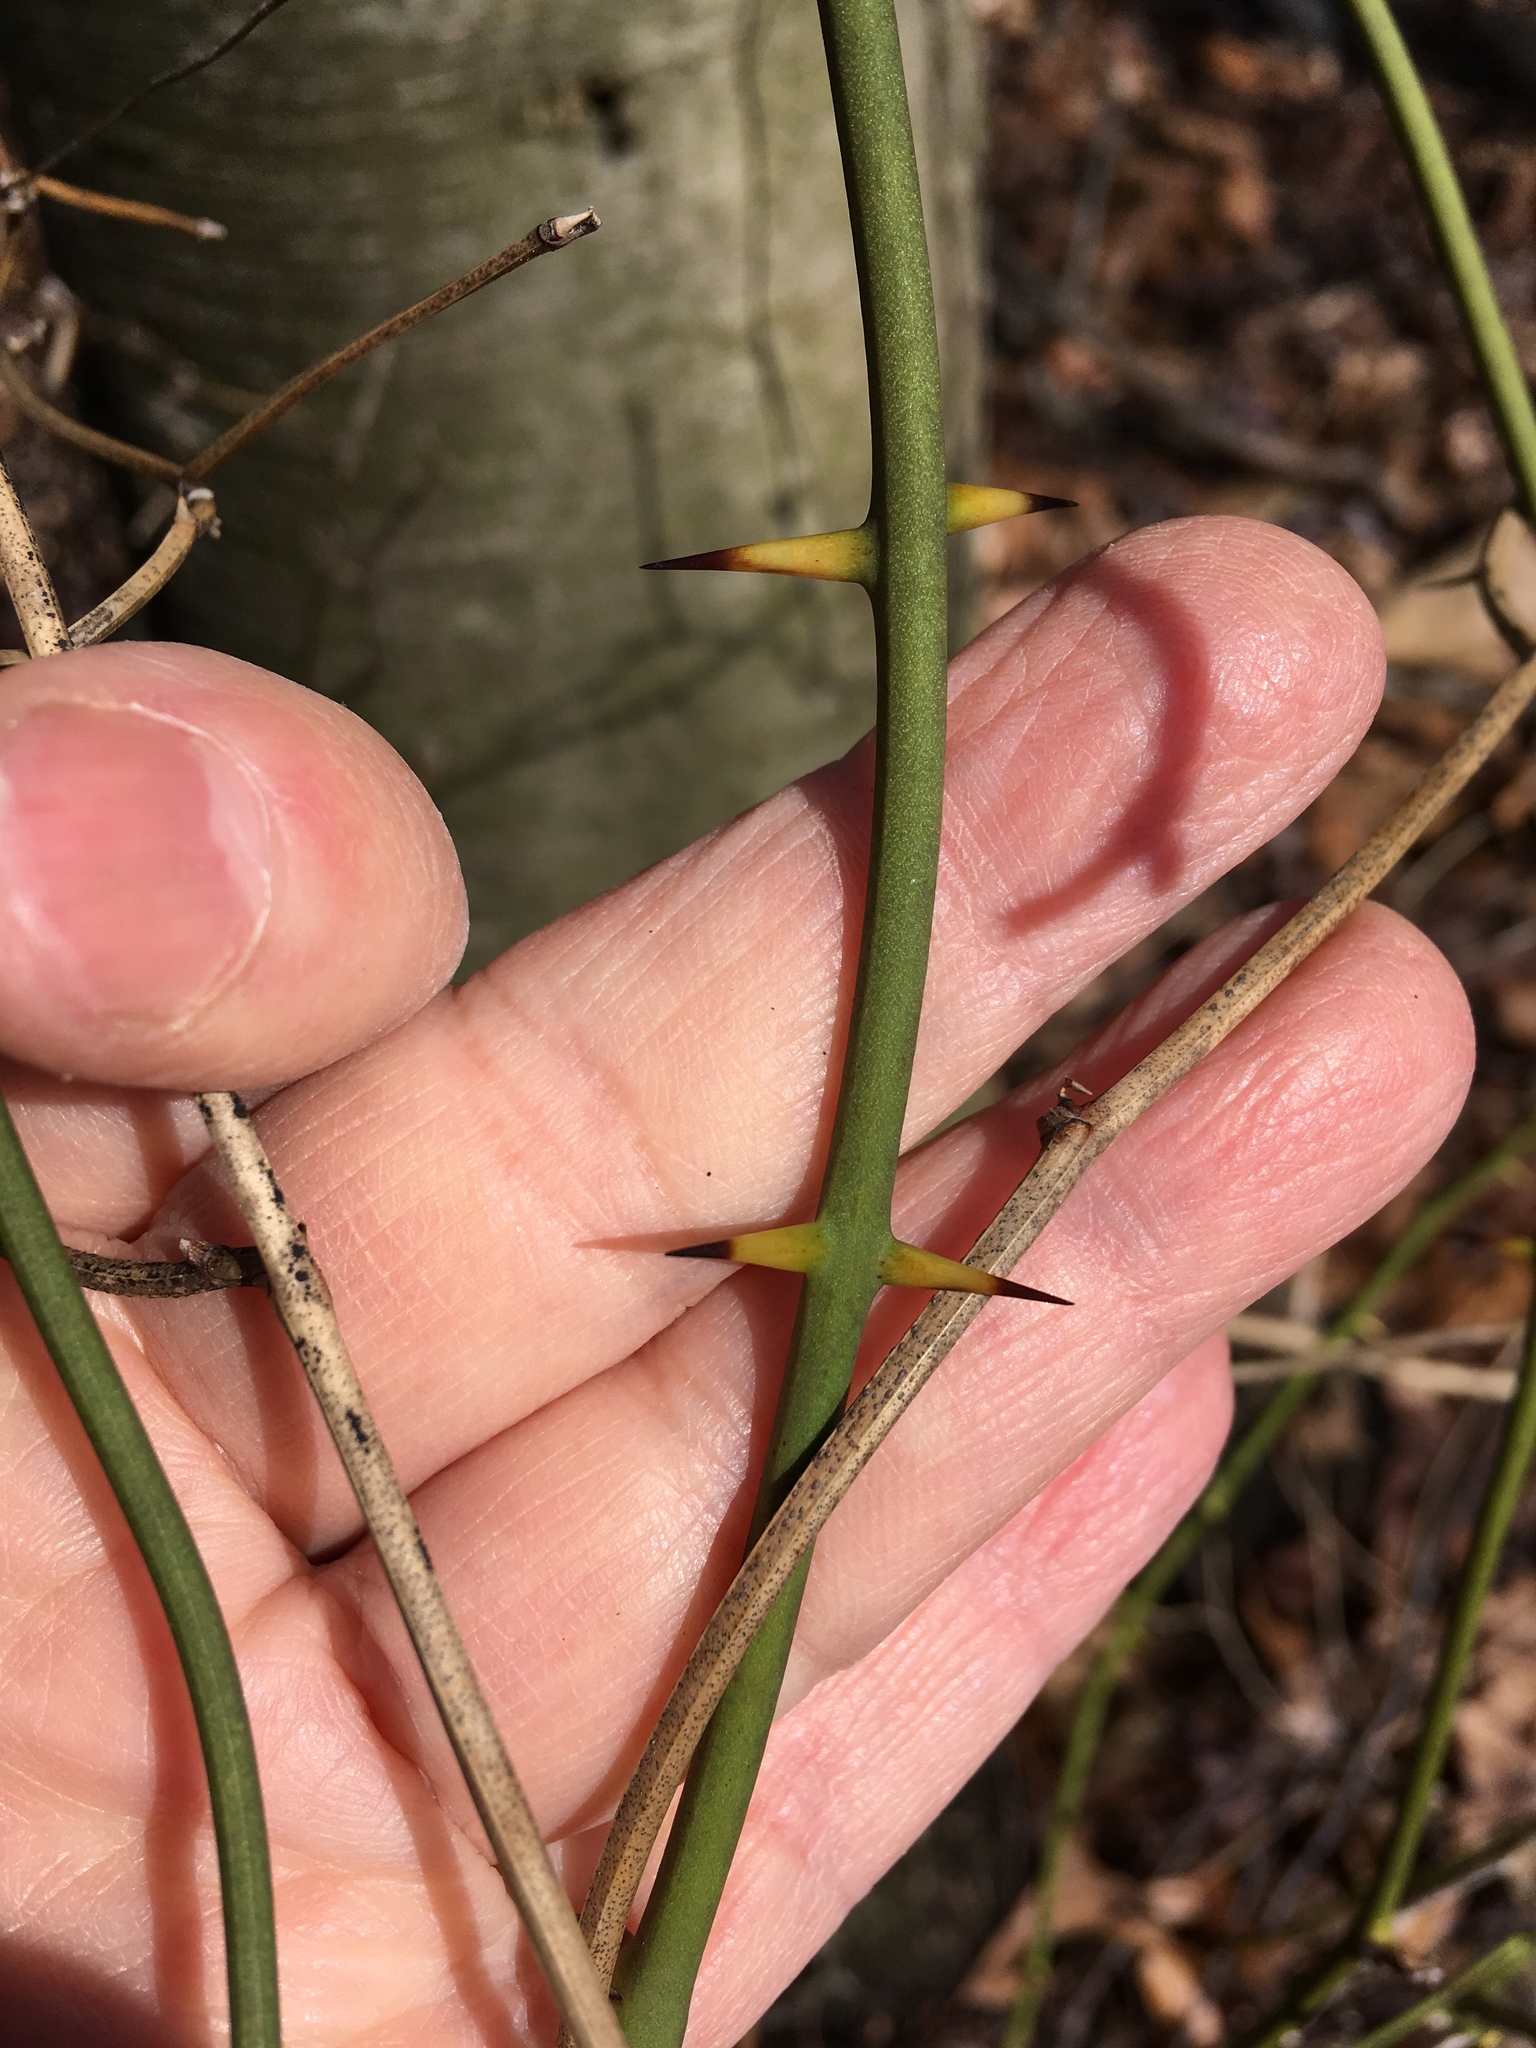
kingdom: Plantae
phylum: Tracheophyta
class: Liliopsida
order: Liliales
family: Smilacaceae
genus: Smilax
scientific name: Smilax rotundifolia
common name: Bullbriar
